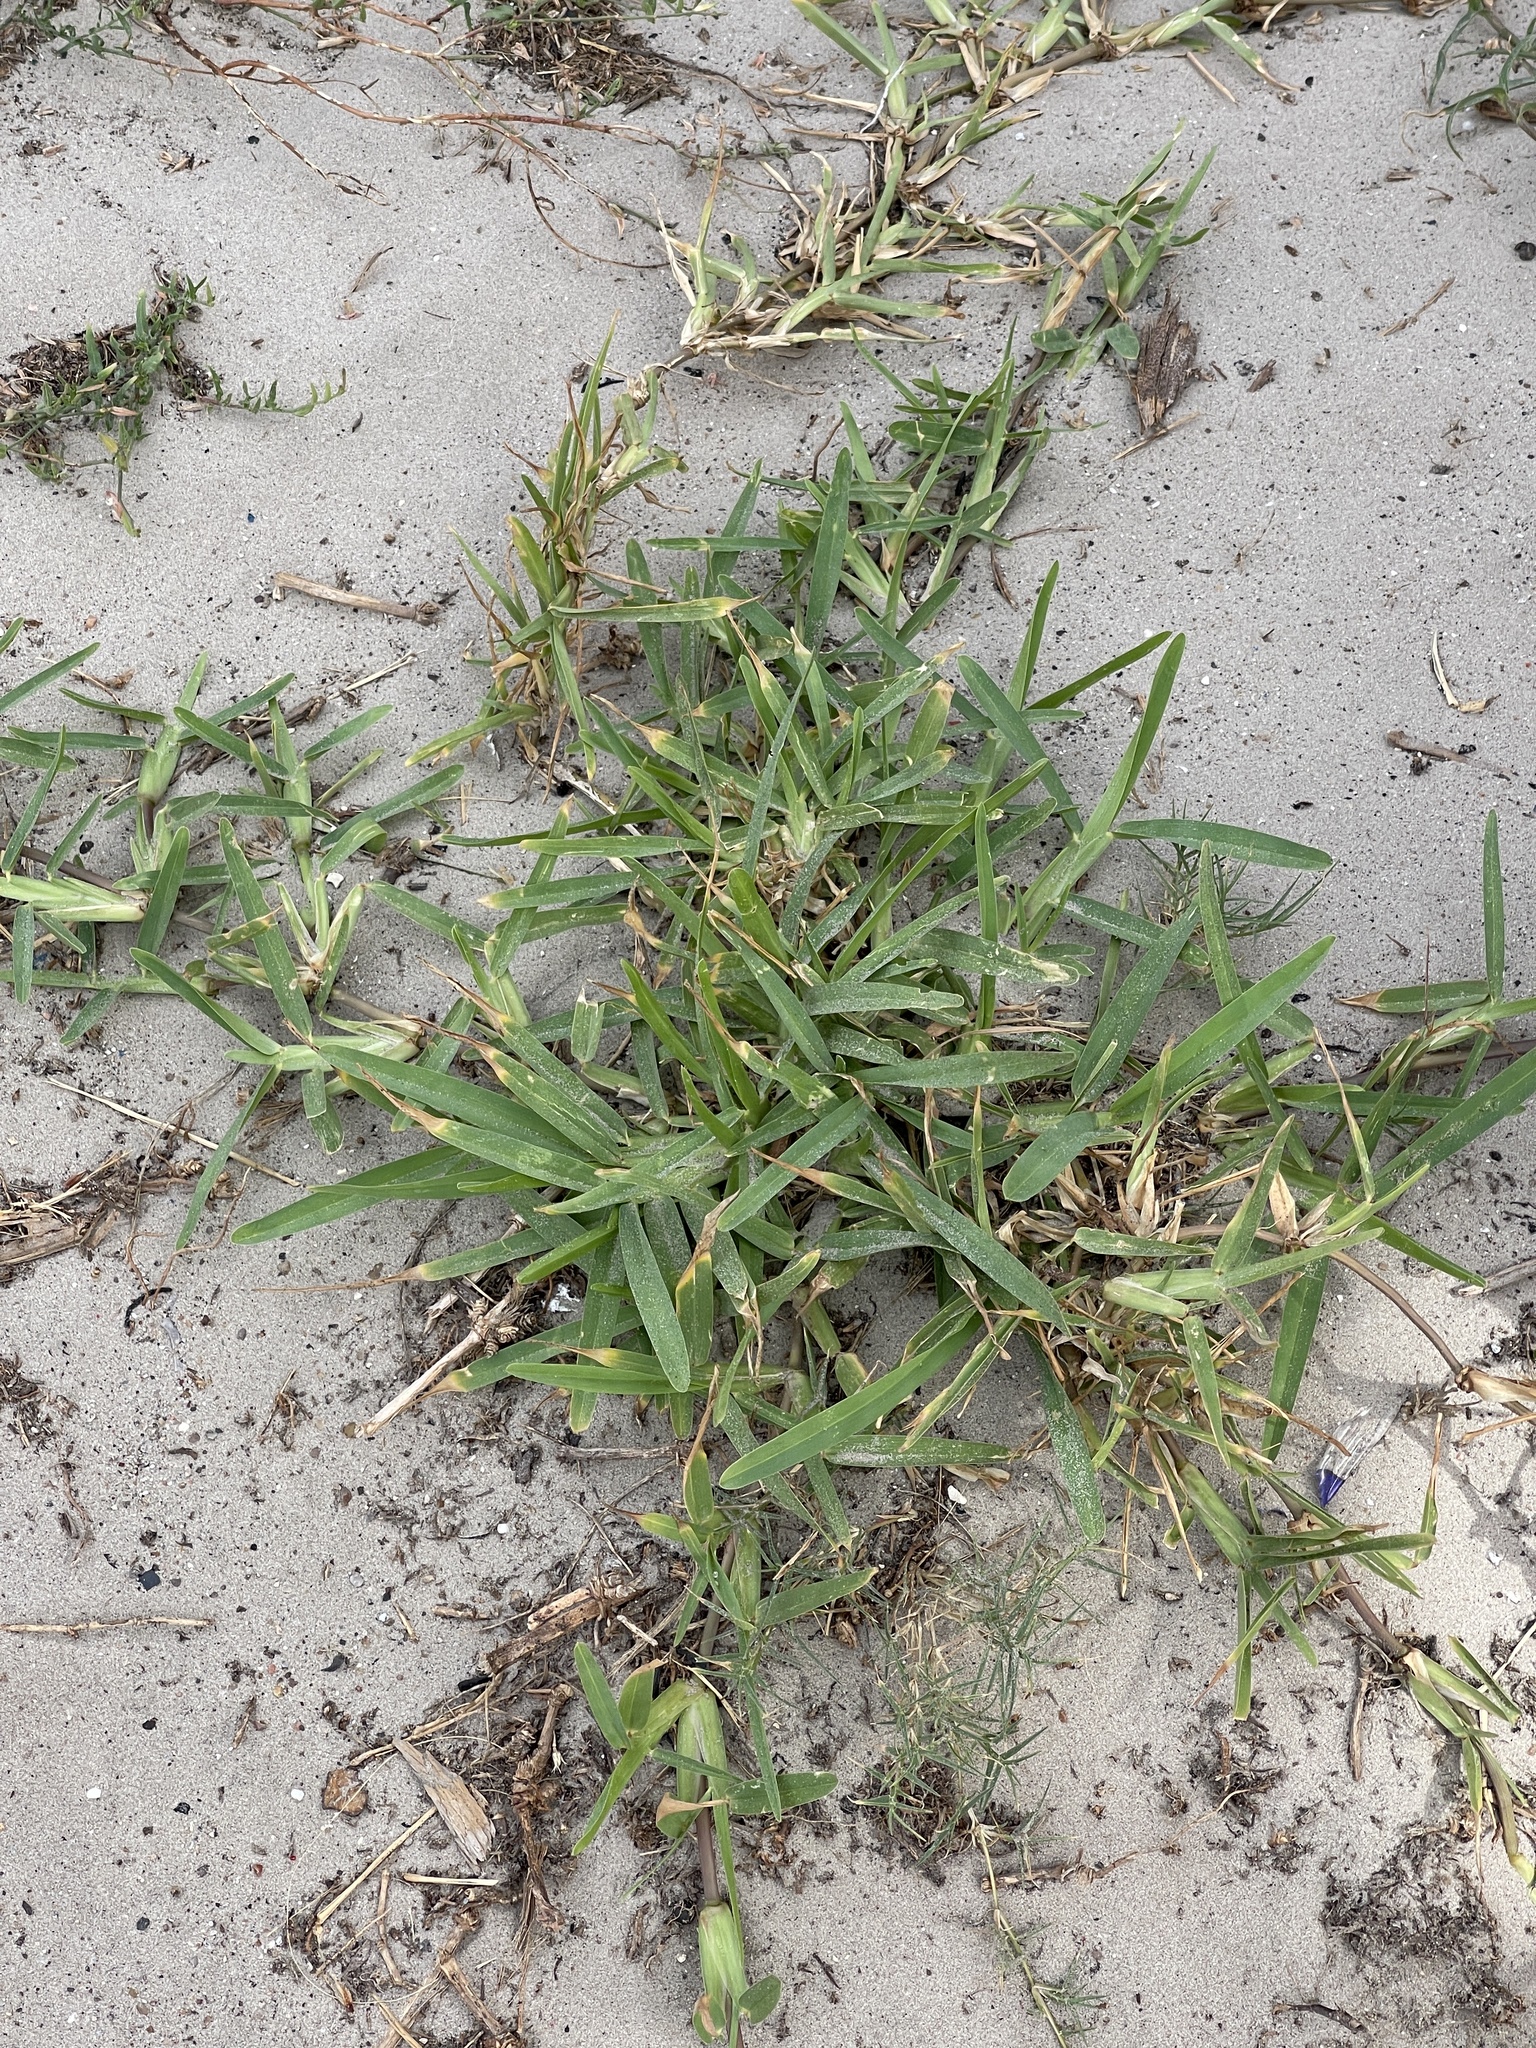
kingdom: Plantae
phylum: Tracheophyta
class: Liliopsida
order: Poales
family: Poaceae
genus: Stenotaphrum
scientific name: Stenotaphrum secundatum
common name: St. augustine grass
